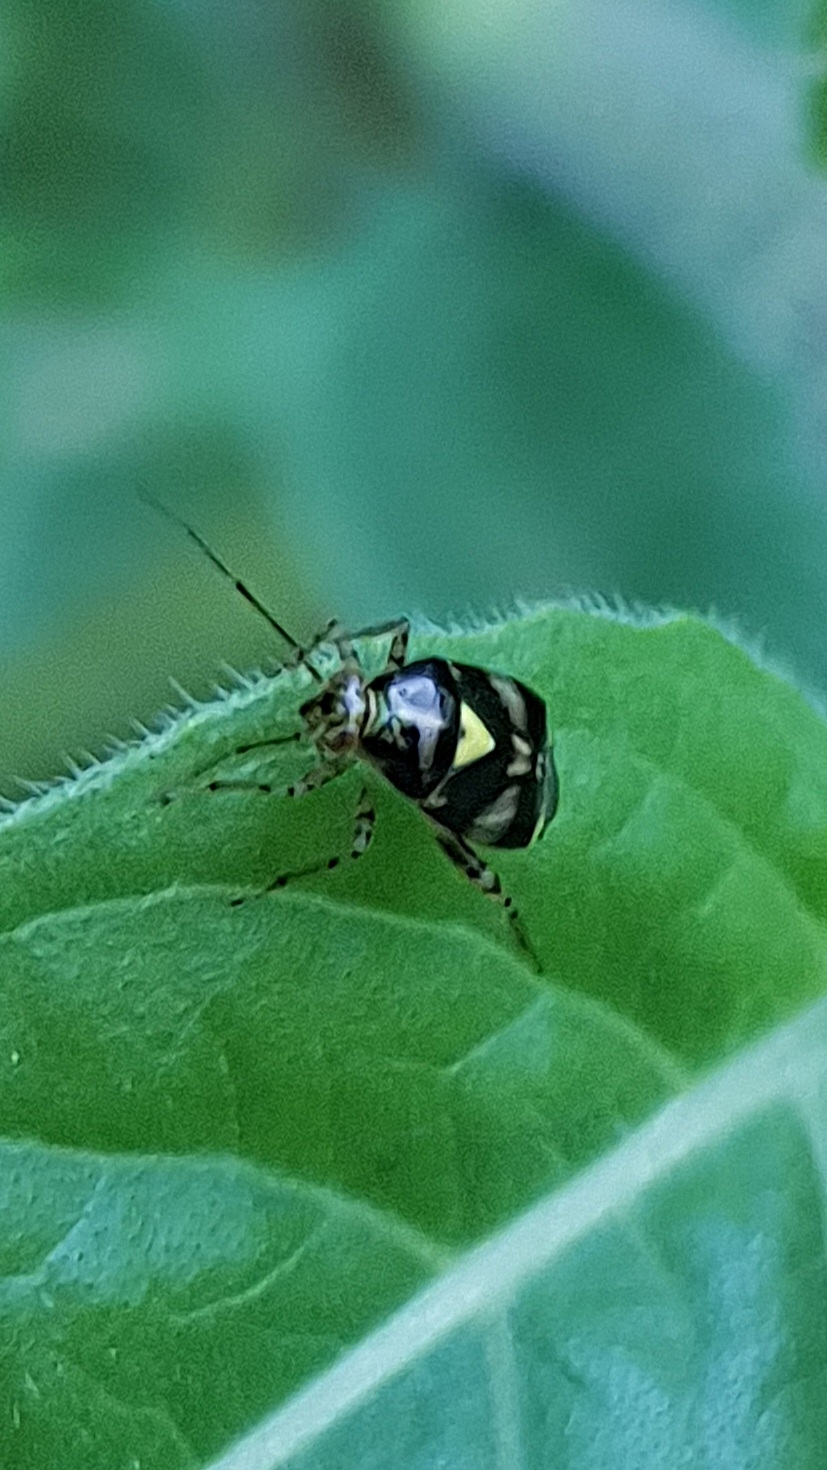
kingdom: Animalia
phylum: Arthropoda
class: Insecta
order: Hemiptera
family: Miridae
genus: Liocoris
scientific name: Liocoris tripustulatus
